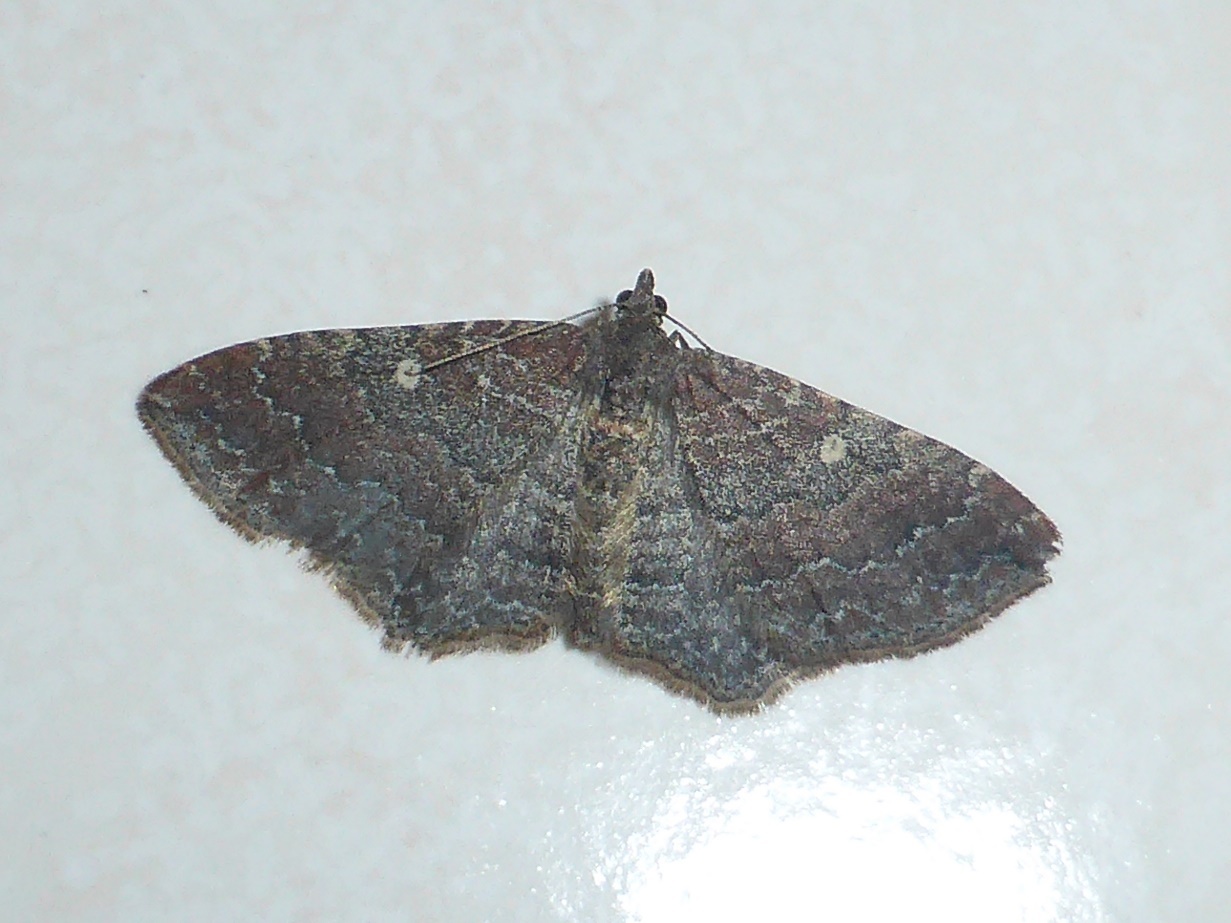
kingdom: Animalia
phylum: Arthropoda
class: Insecta
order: Lepidoptera
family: Geometridae
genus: Orthonama
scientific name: Orthonama obstipata
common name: The gem
